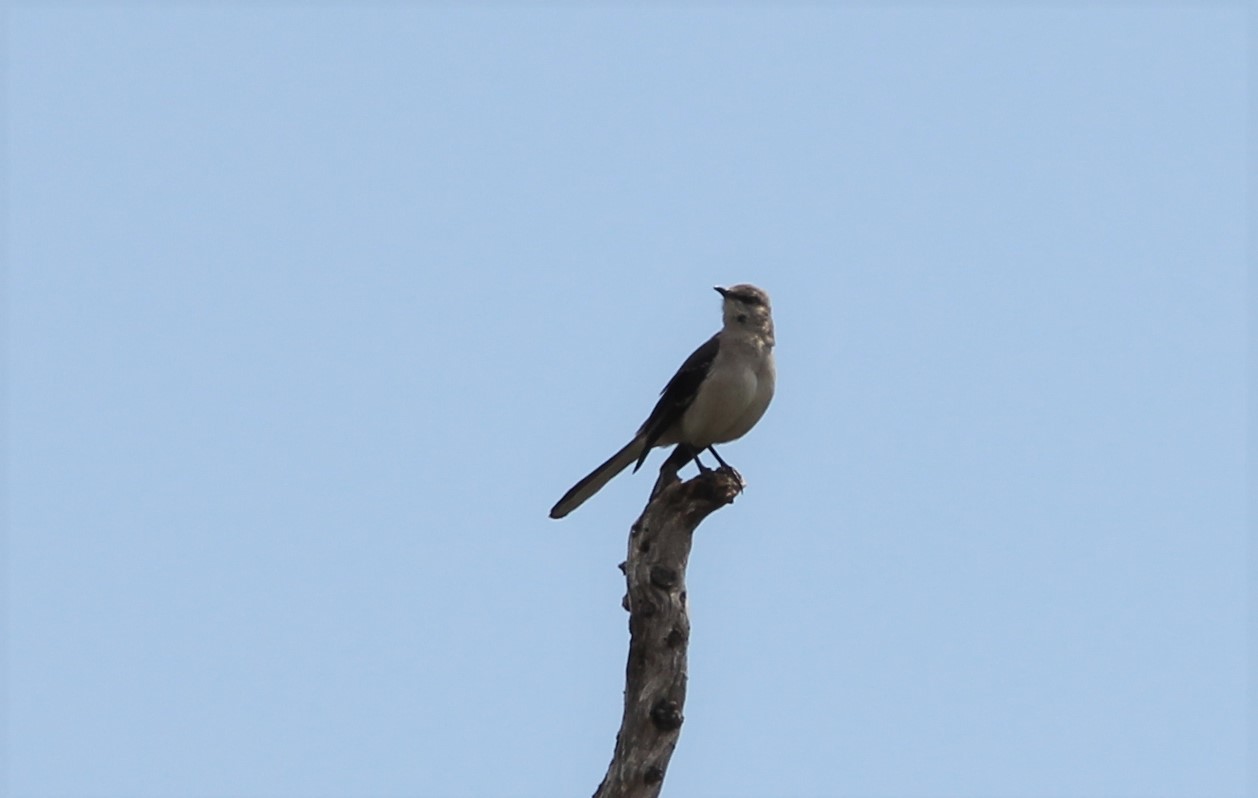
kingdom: Animalia
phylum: Chordata
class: Aves
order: Passeriformes
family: Mimidae
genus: Mimus
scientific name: Mimus polyglottos
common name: Northern mockingbird
